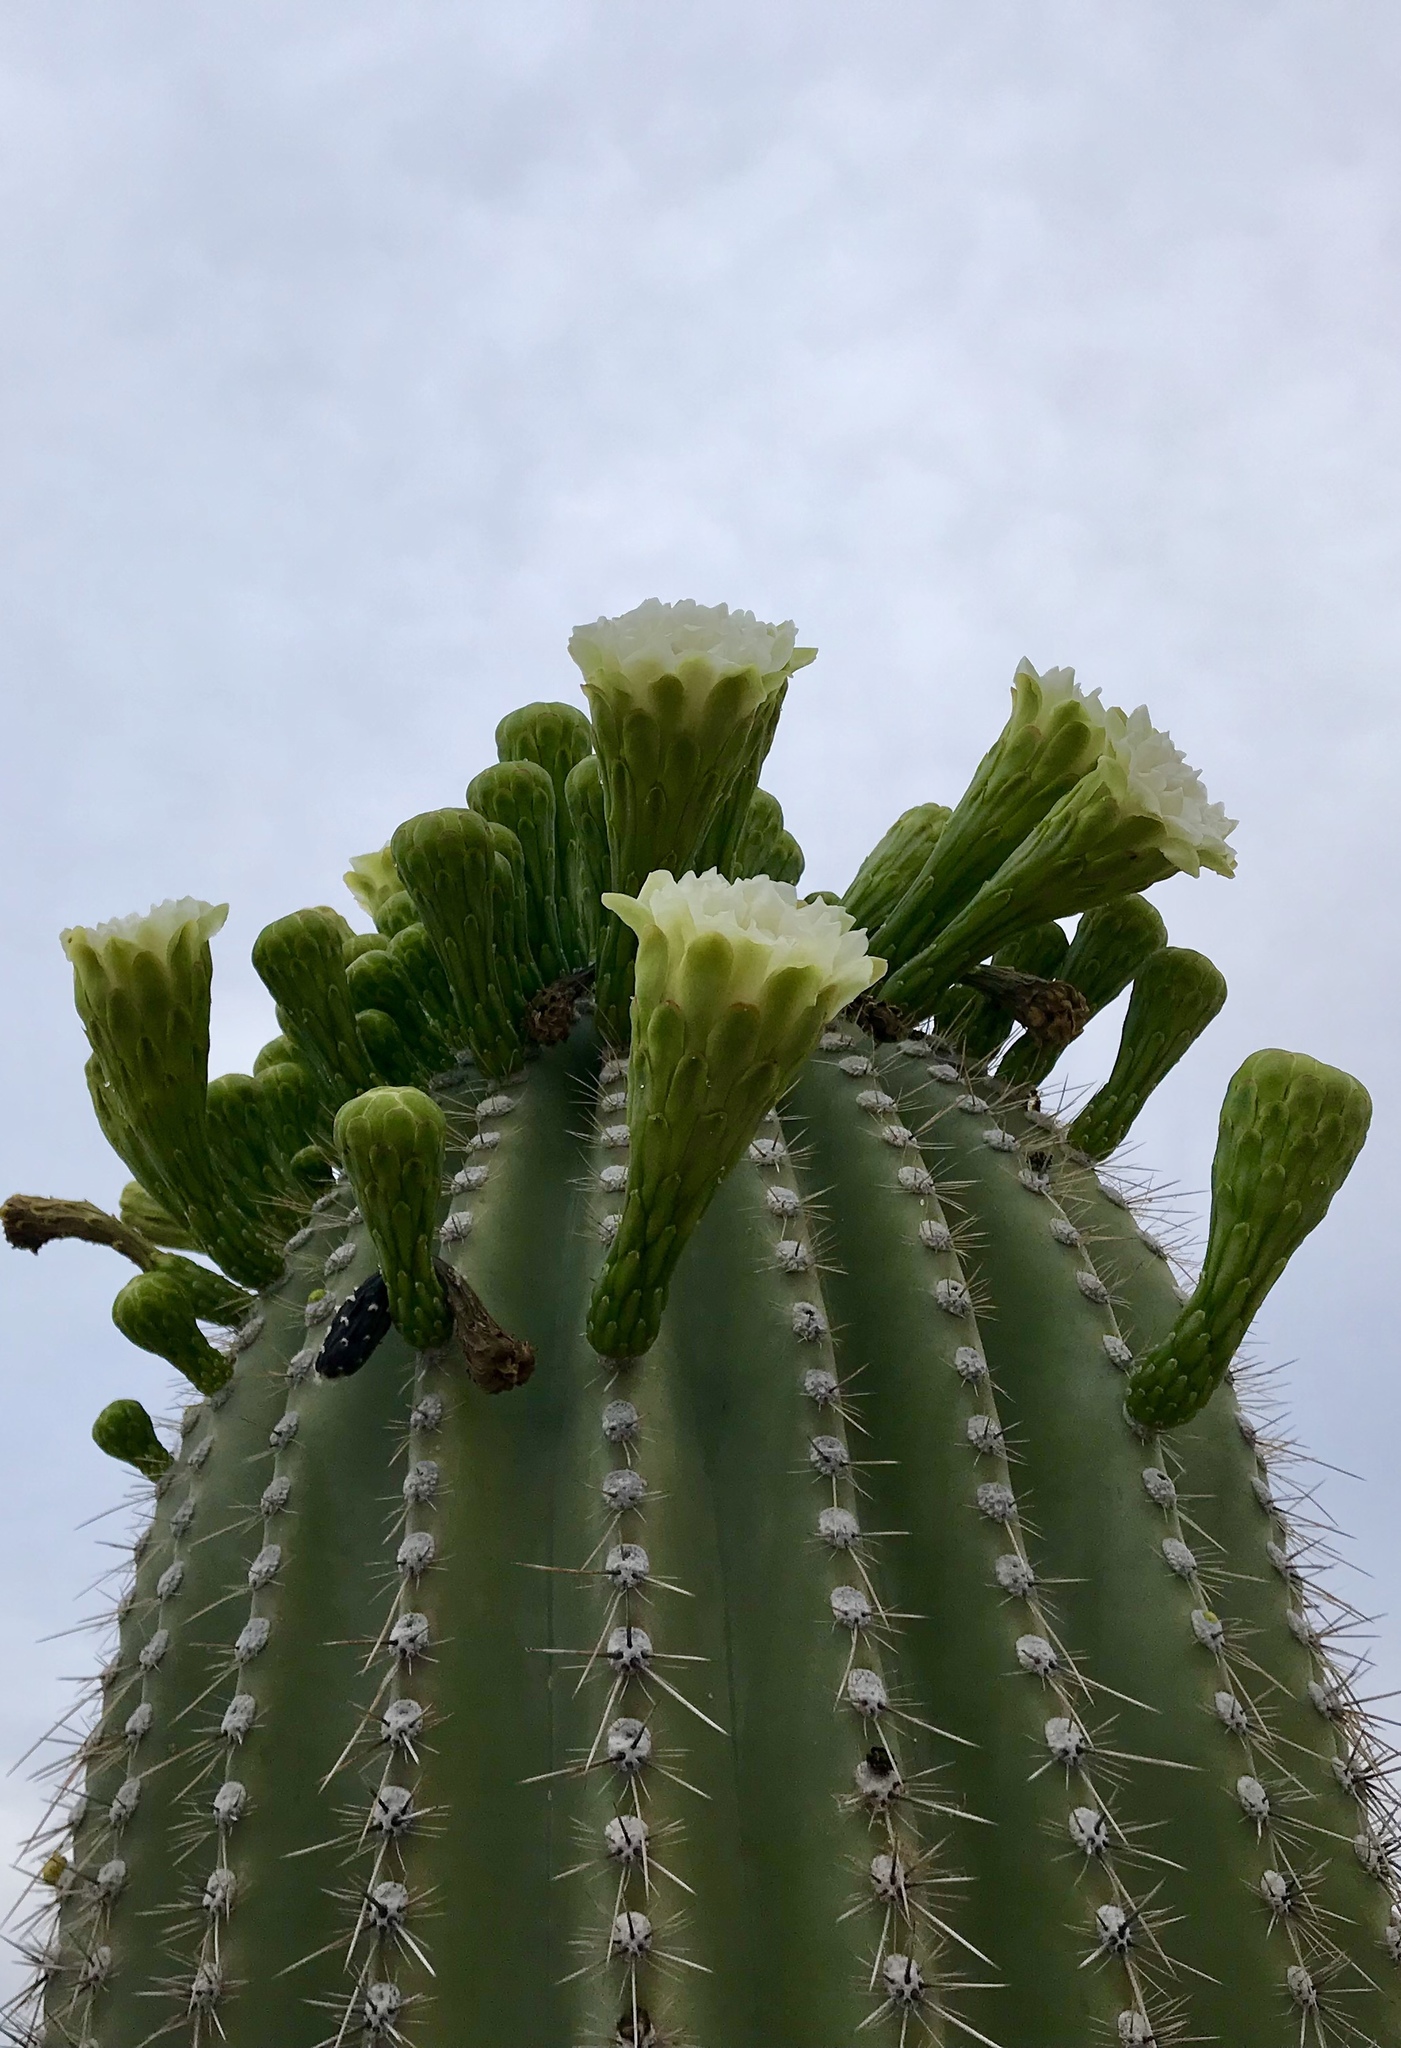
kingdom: Plantae
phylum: Tracheophyta
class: Magnoliopsida
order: Caryophyllales
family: Cactaceae
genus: Carnegiea
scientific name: Carnegiea gigantea
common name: Saguaro
